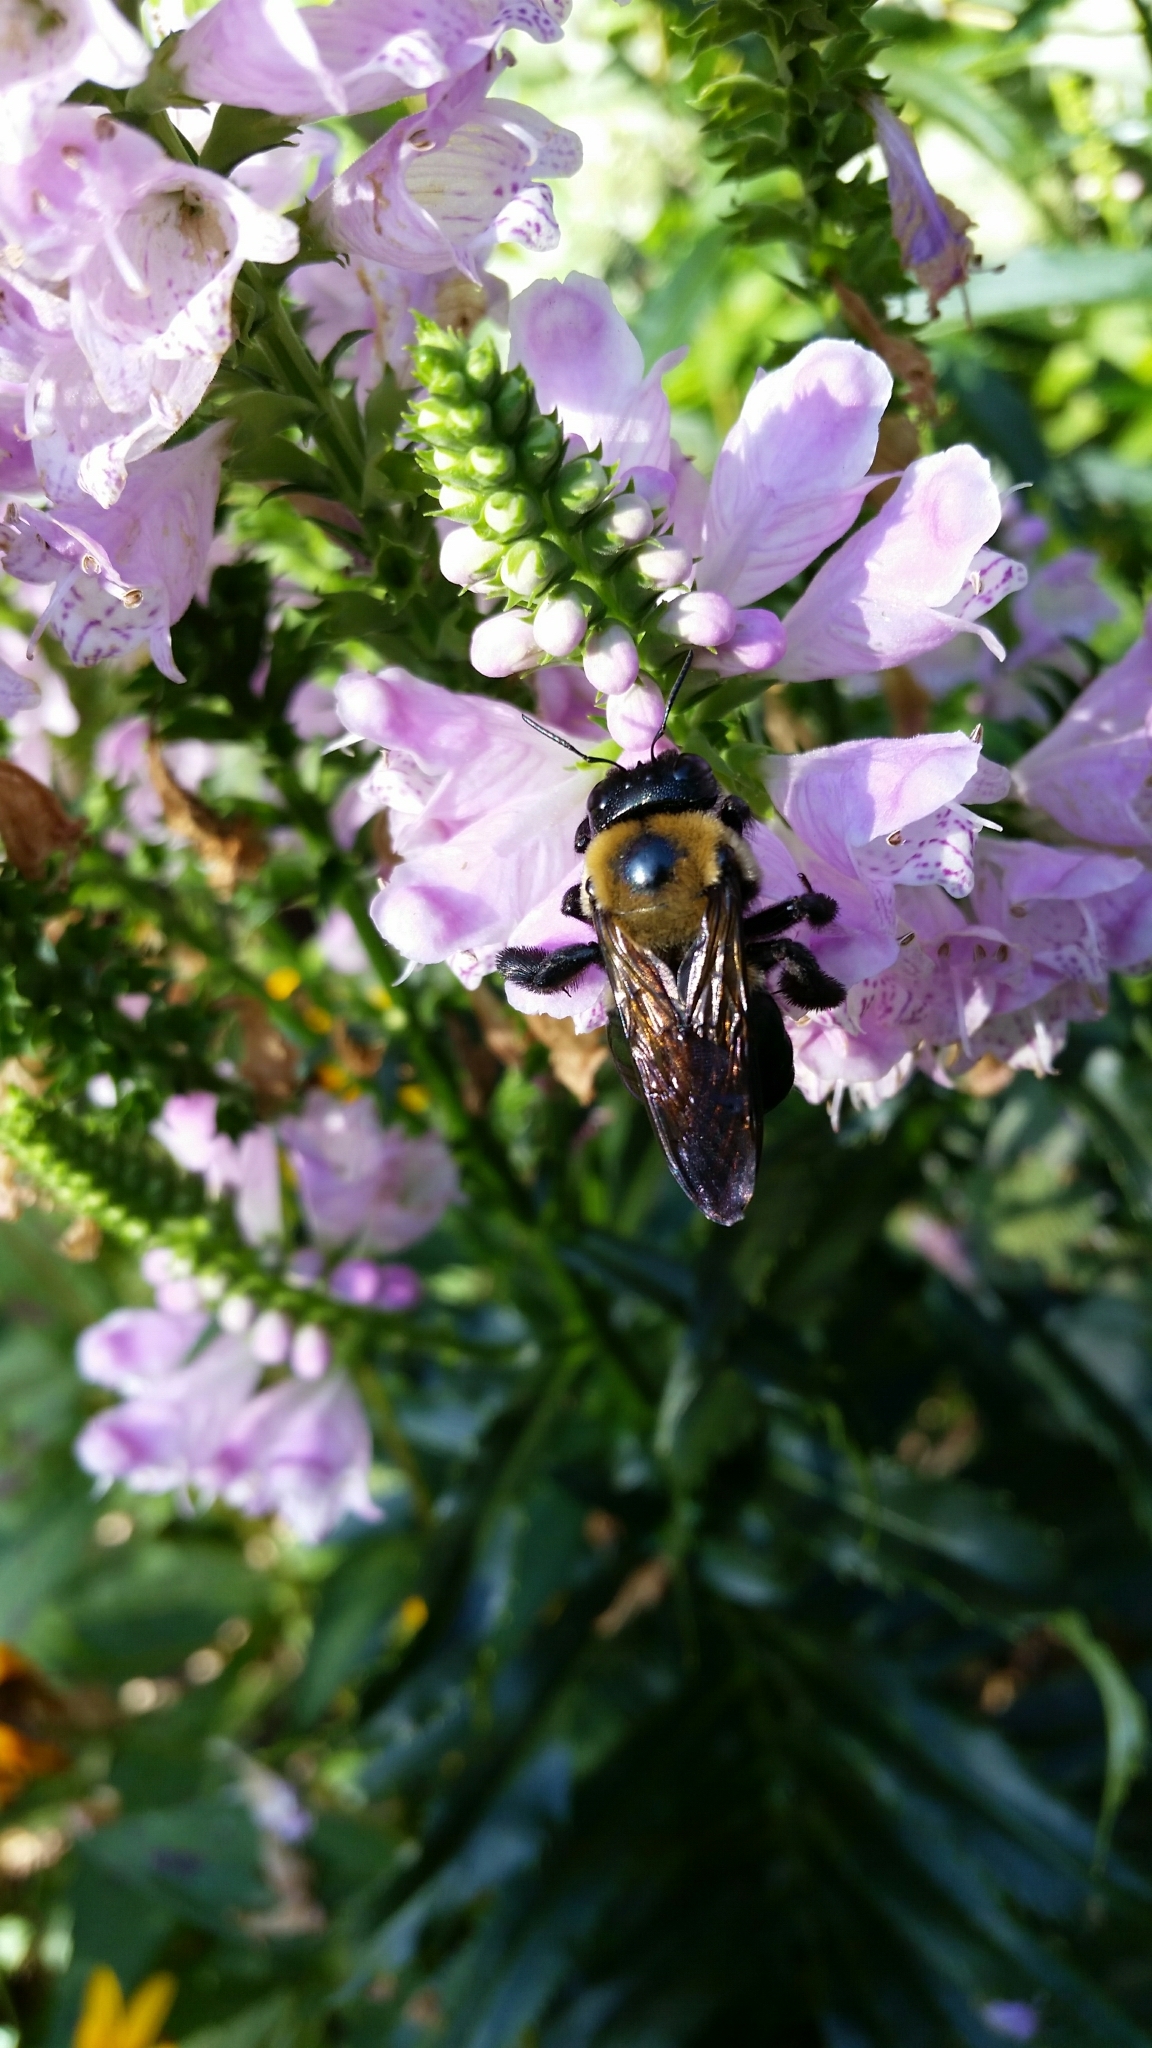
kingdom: Animalia
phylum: Arthropoda
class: Insecta
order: Hymenoptera
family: Apidae
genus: Xylocopa
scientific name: Xylocopa virginica
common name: Carpenter bee
